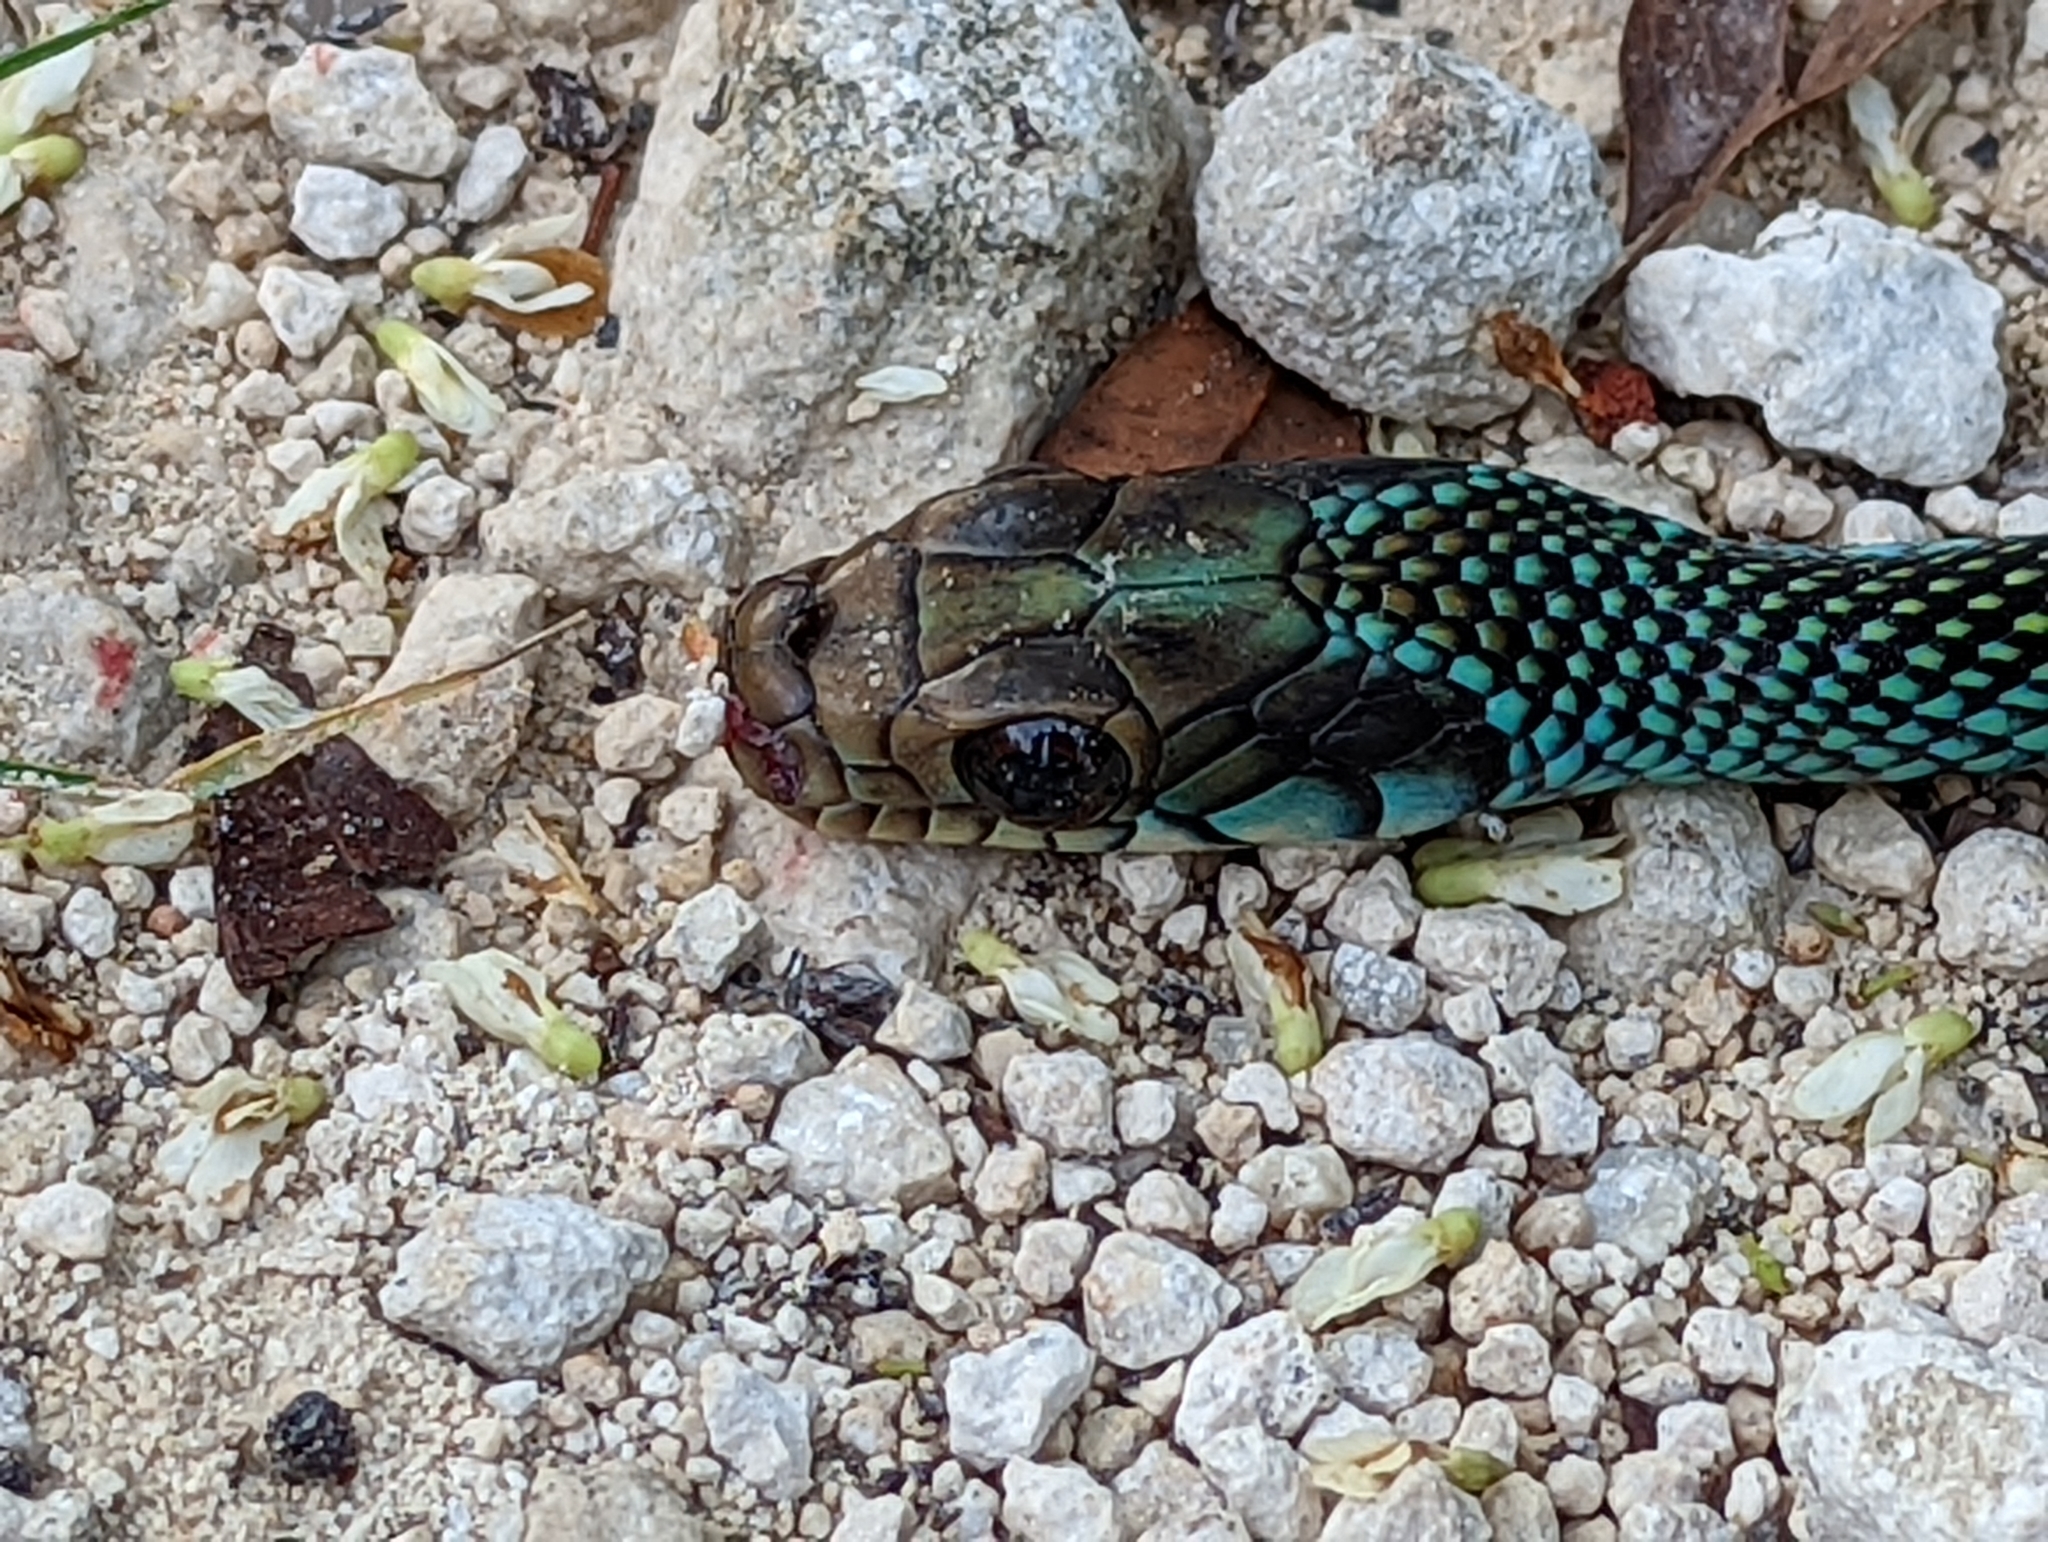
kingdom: Animalia
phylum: Chordata
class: Squamata
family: Colubridae
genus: Drymobius
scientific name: Drymobius margaritiferus
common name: Central american speckled racer
